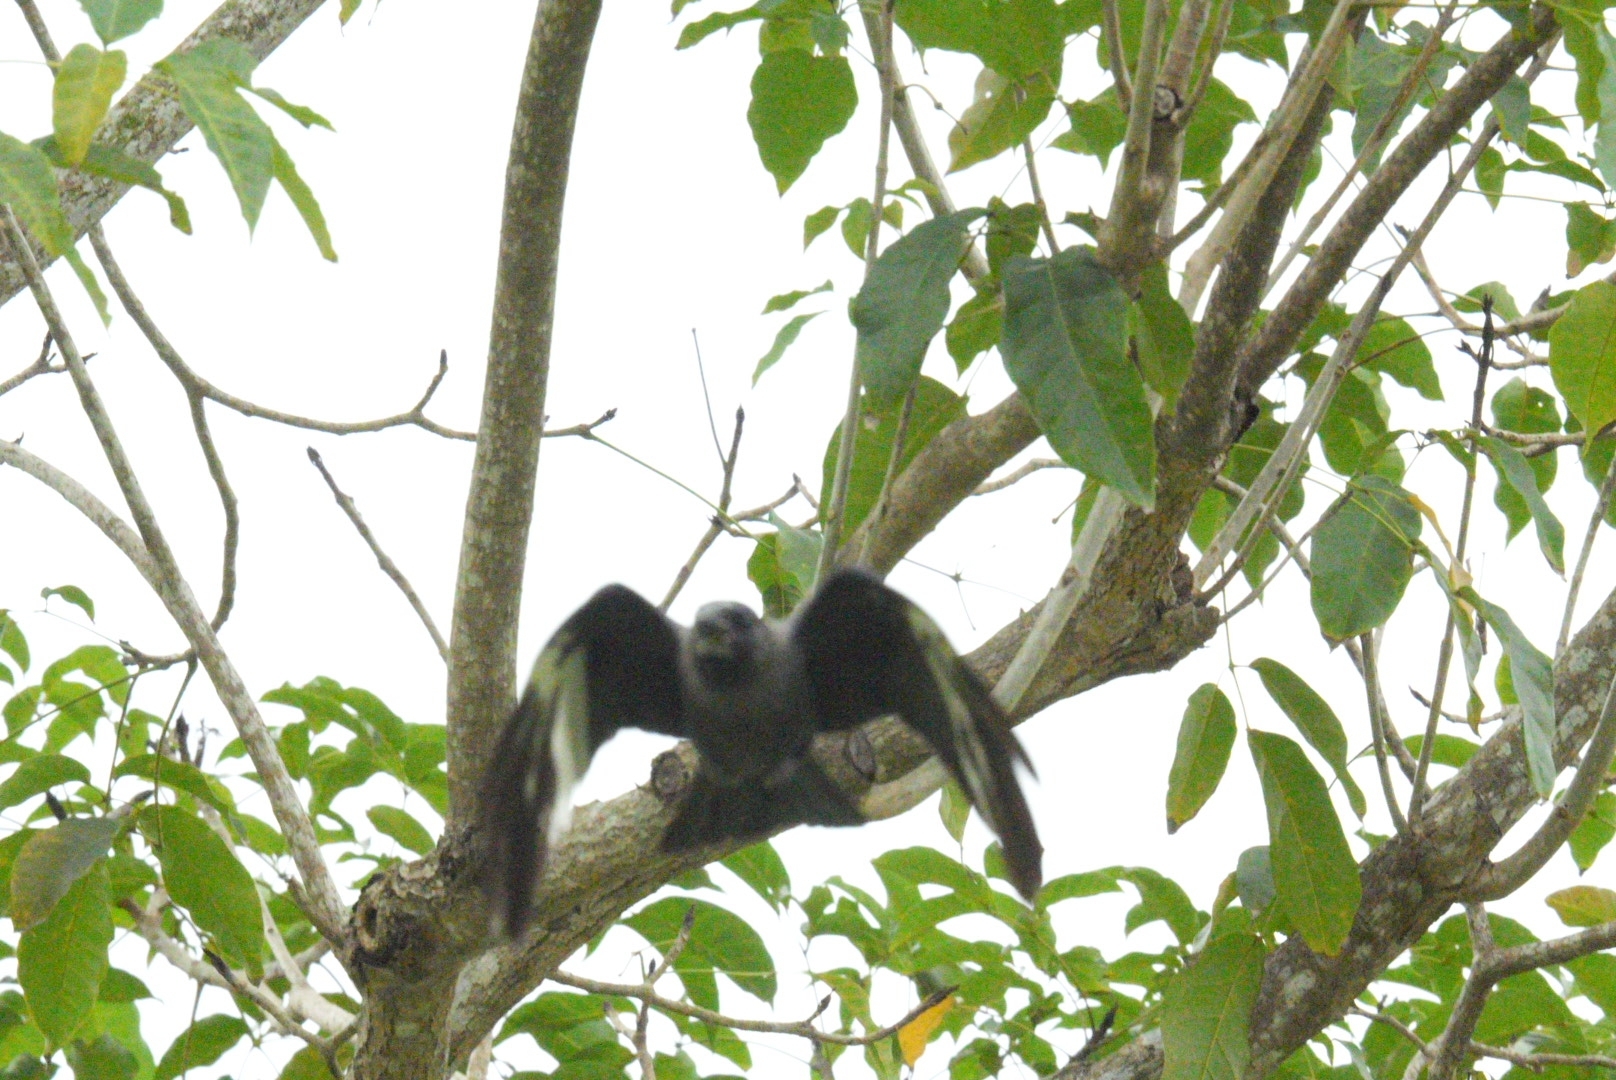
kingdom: Animalia
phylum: Chordata
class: Aves
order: Passeriformes
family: Corvidae
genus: Corvus
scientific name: Corvus splendens
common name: House crow
